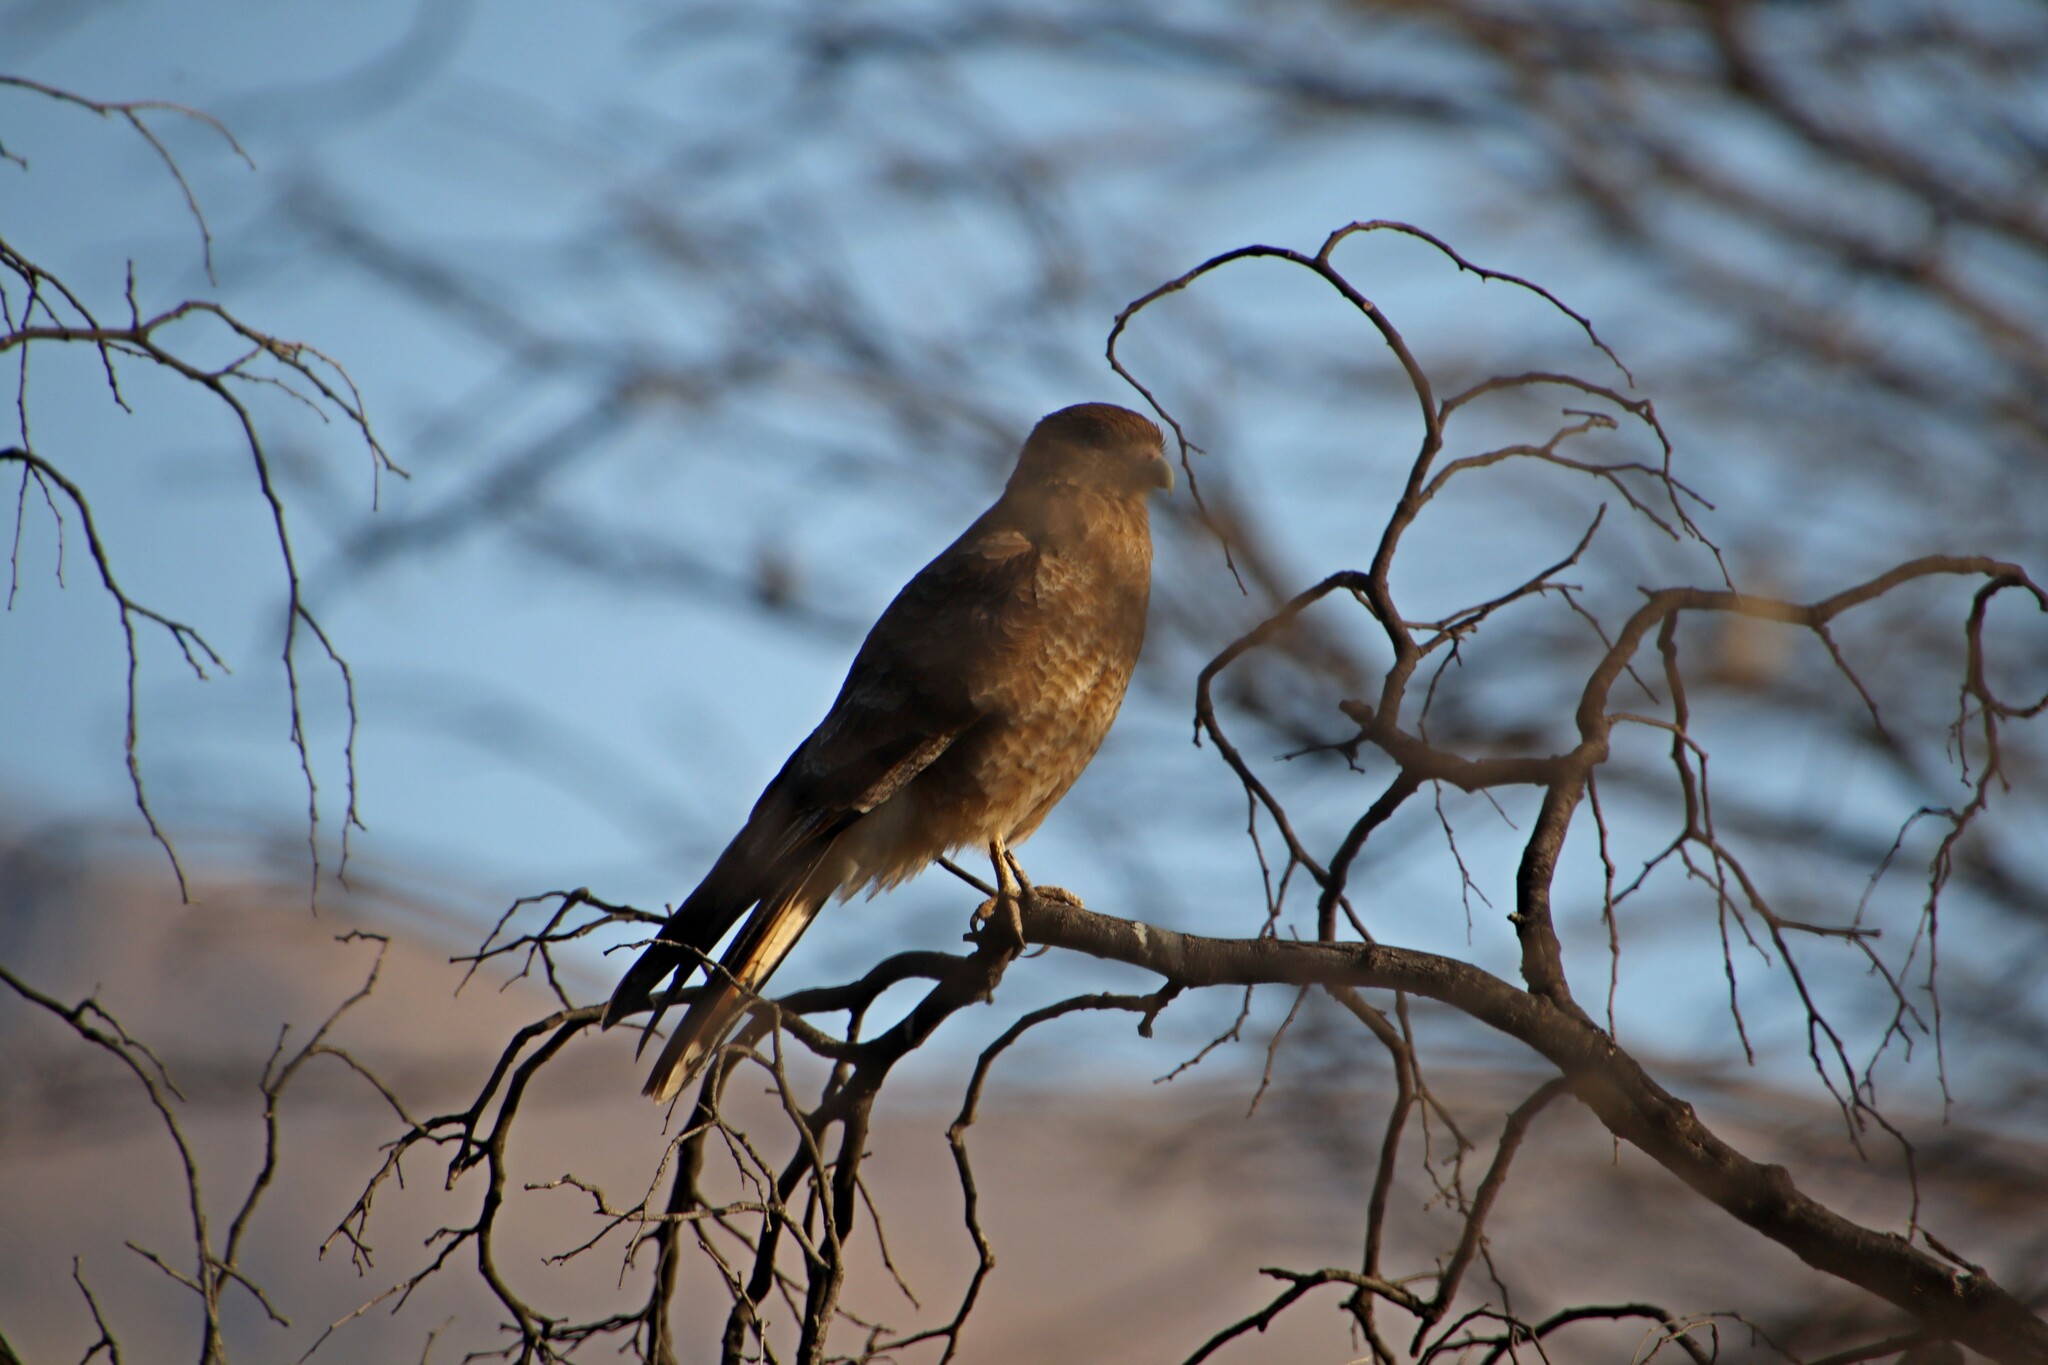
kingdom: Animalia
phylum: Chordata
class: Aves
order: Falconiformes
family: Falconidae
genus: Daptrius
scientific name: Daptrius
